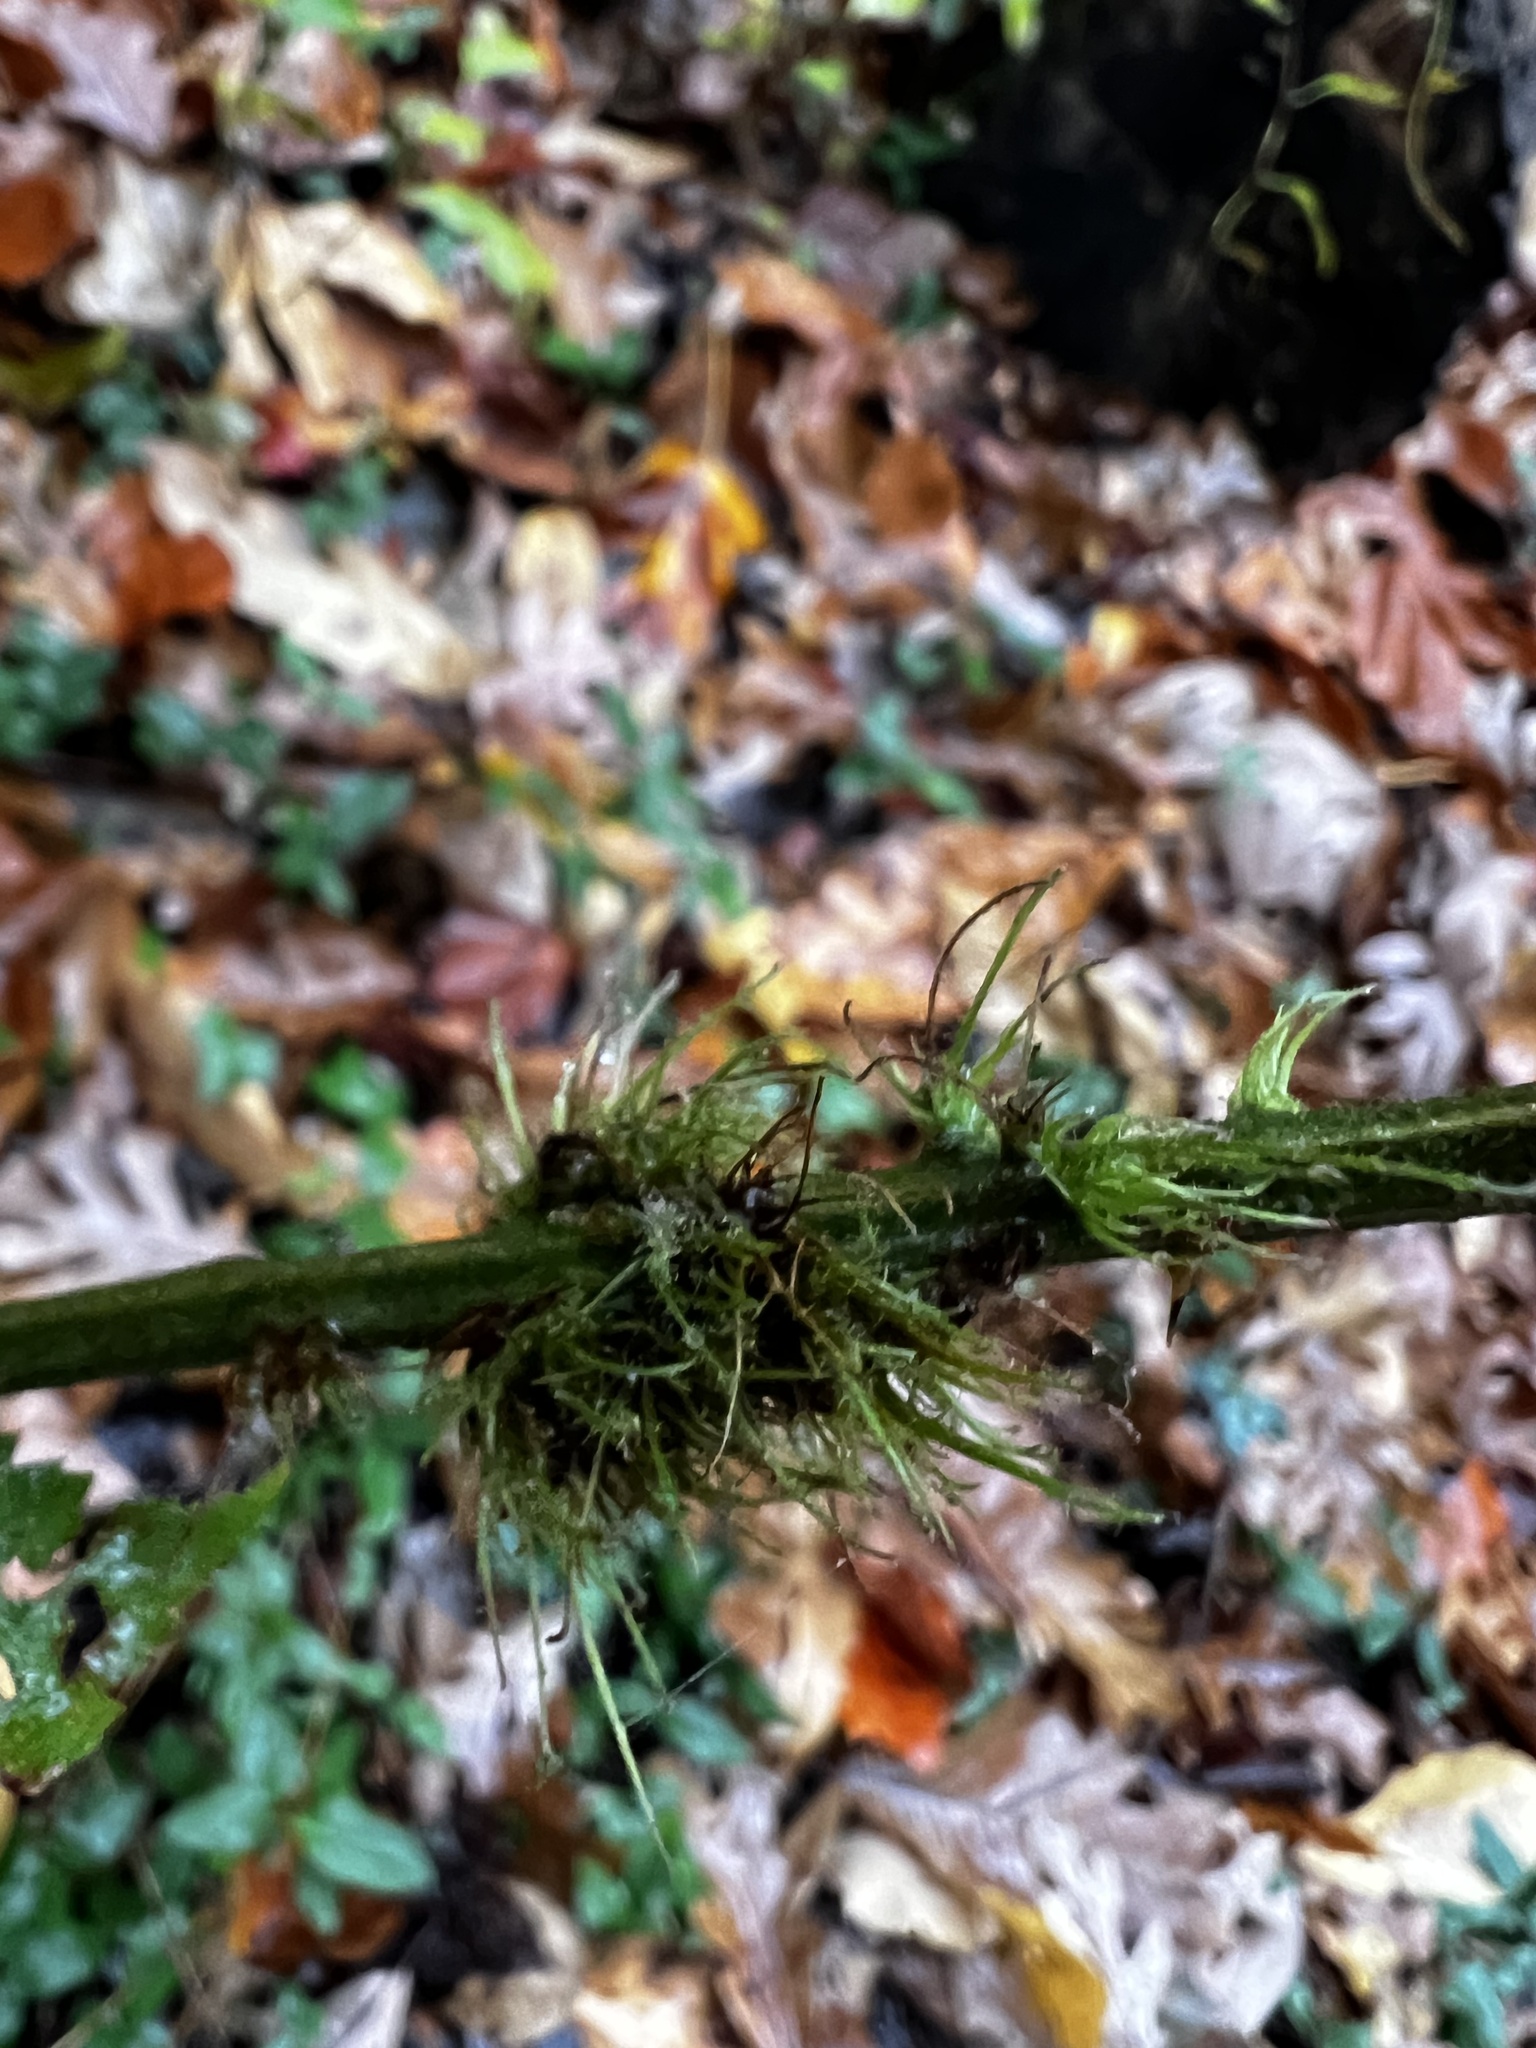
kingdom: Animalia
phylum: Arthropoda
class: Insecta
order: Hymenoptera
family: Cynipidae
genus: Diastrophus
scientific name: Diastrophus
